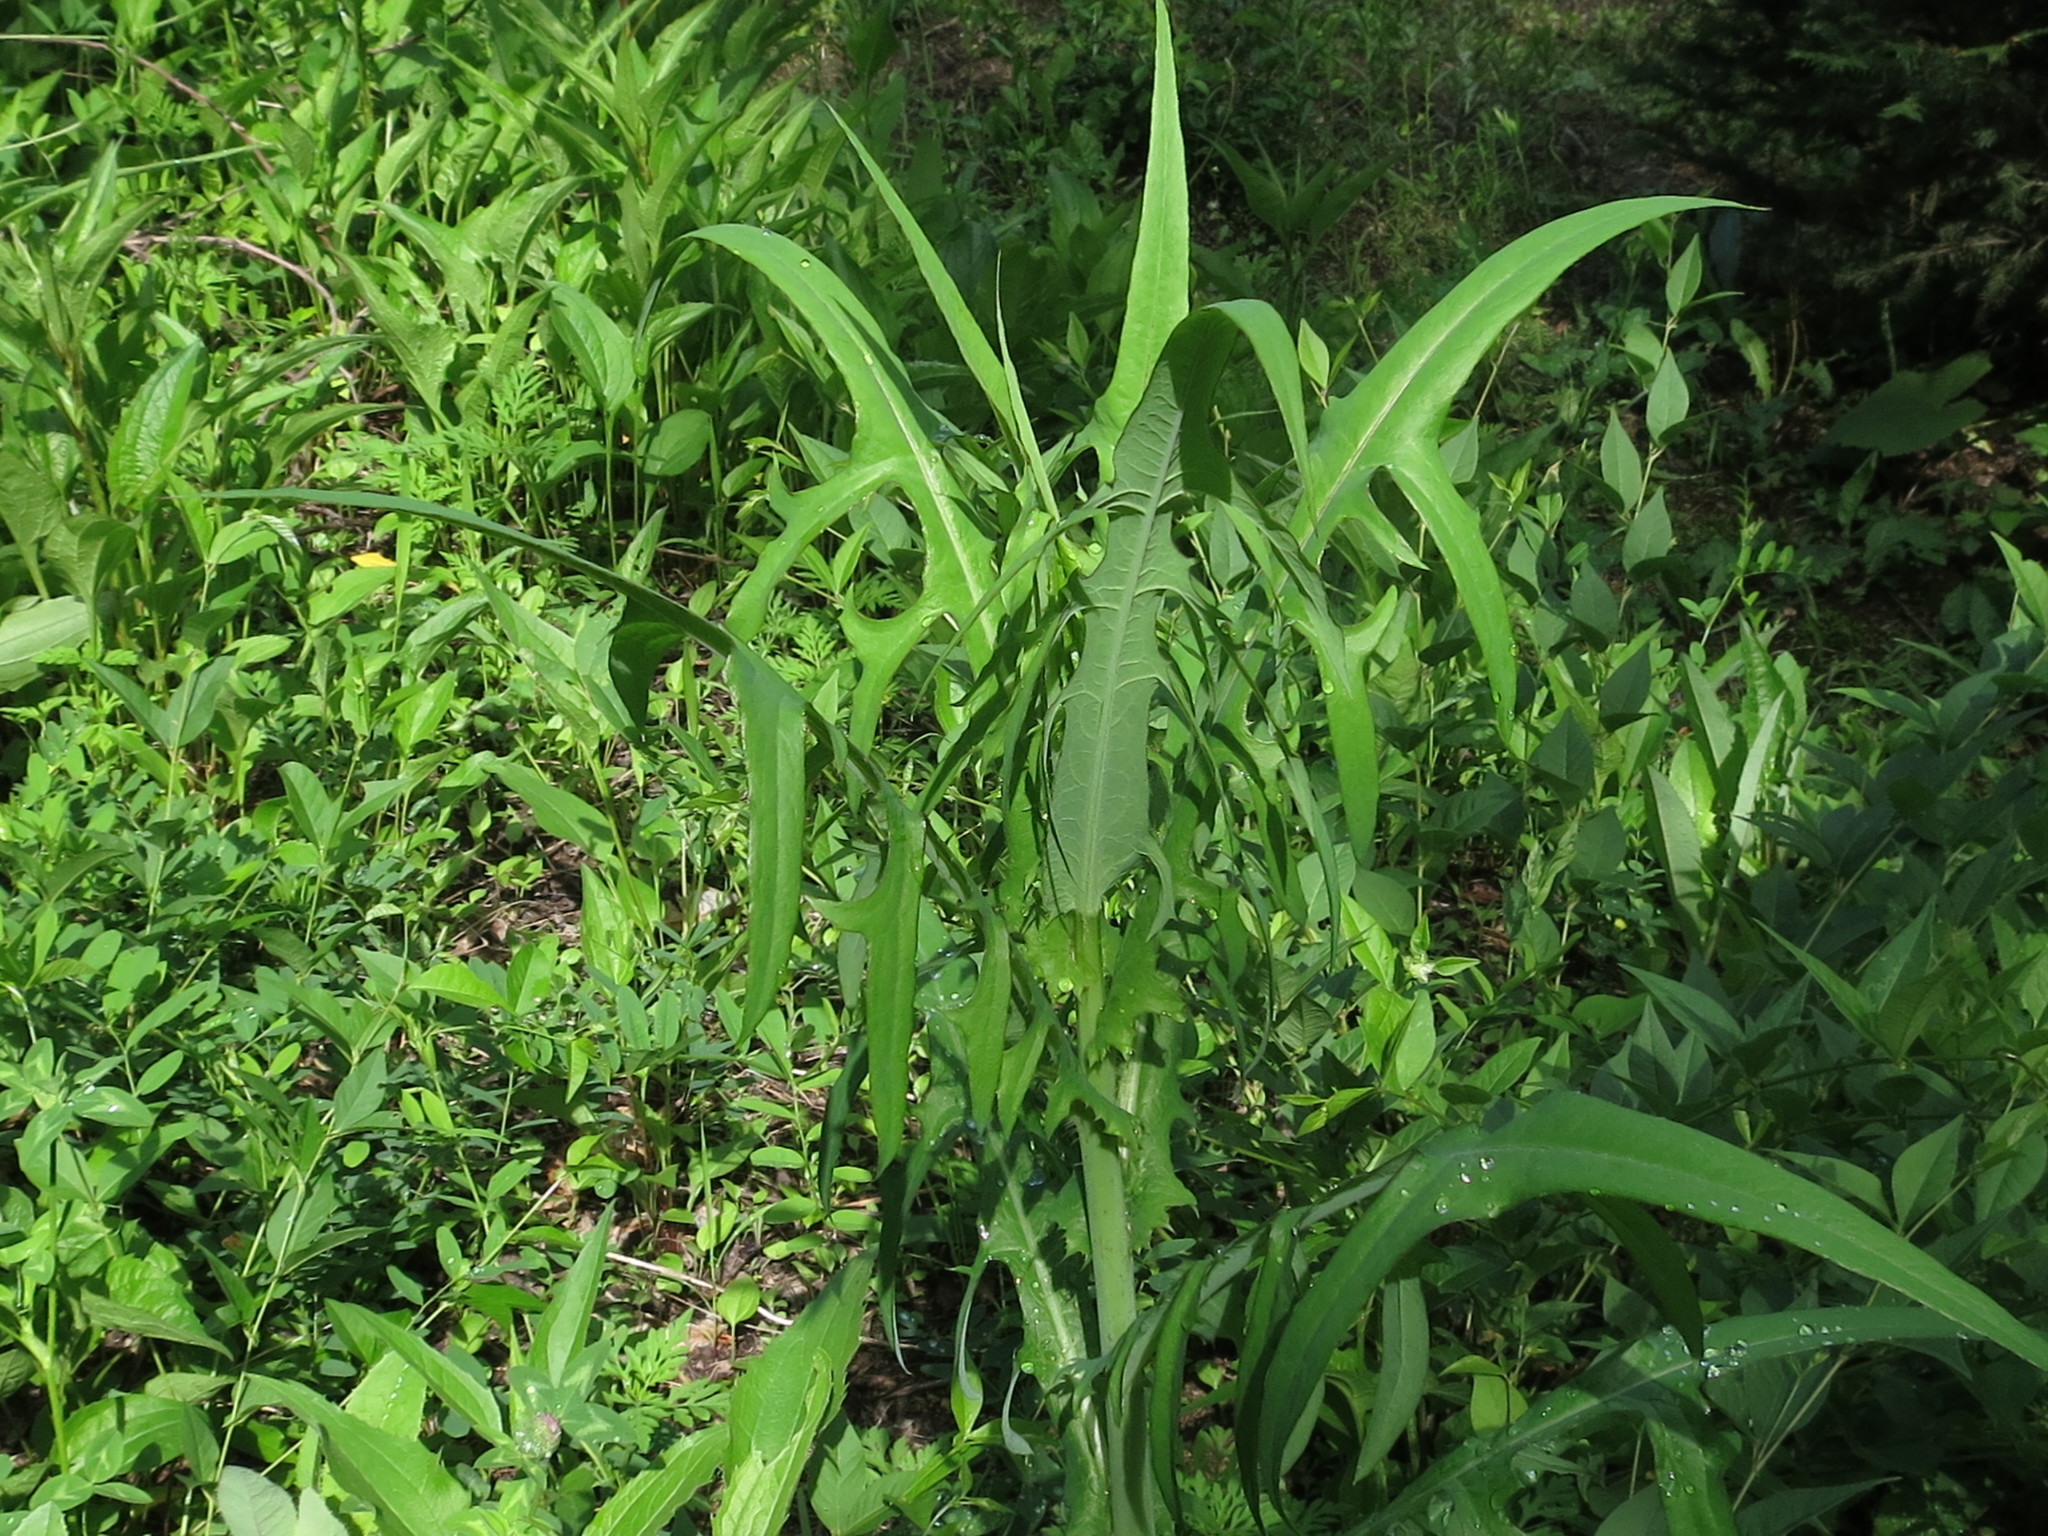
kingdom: Plantae
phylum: Tracheophyta
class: Magnoliopsida
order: Asterales
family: Asteraceae
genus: Lactuca
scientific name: Lactuca indica
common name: Wild lettuce
